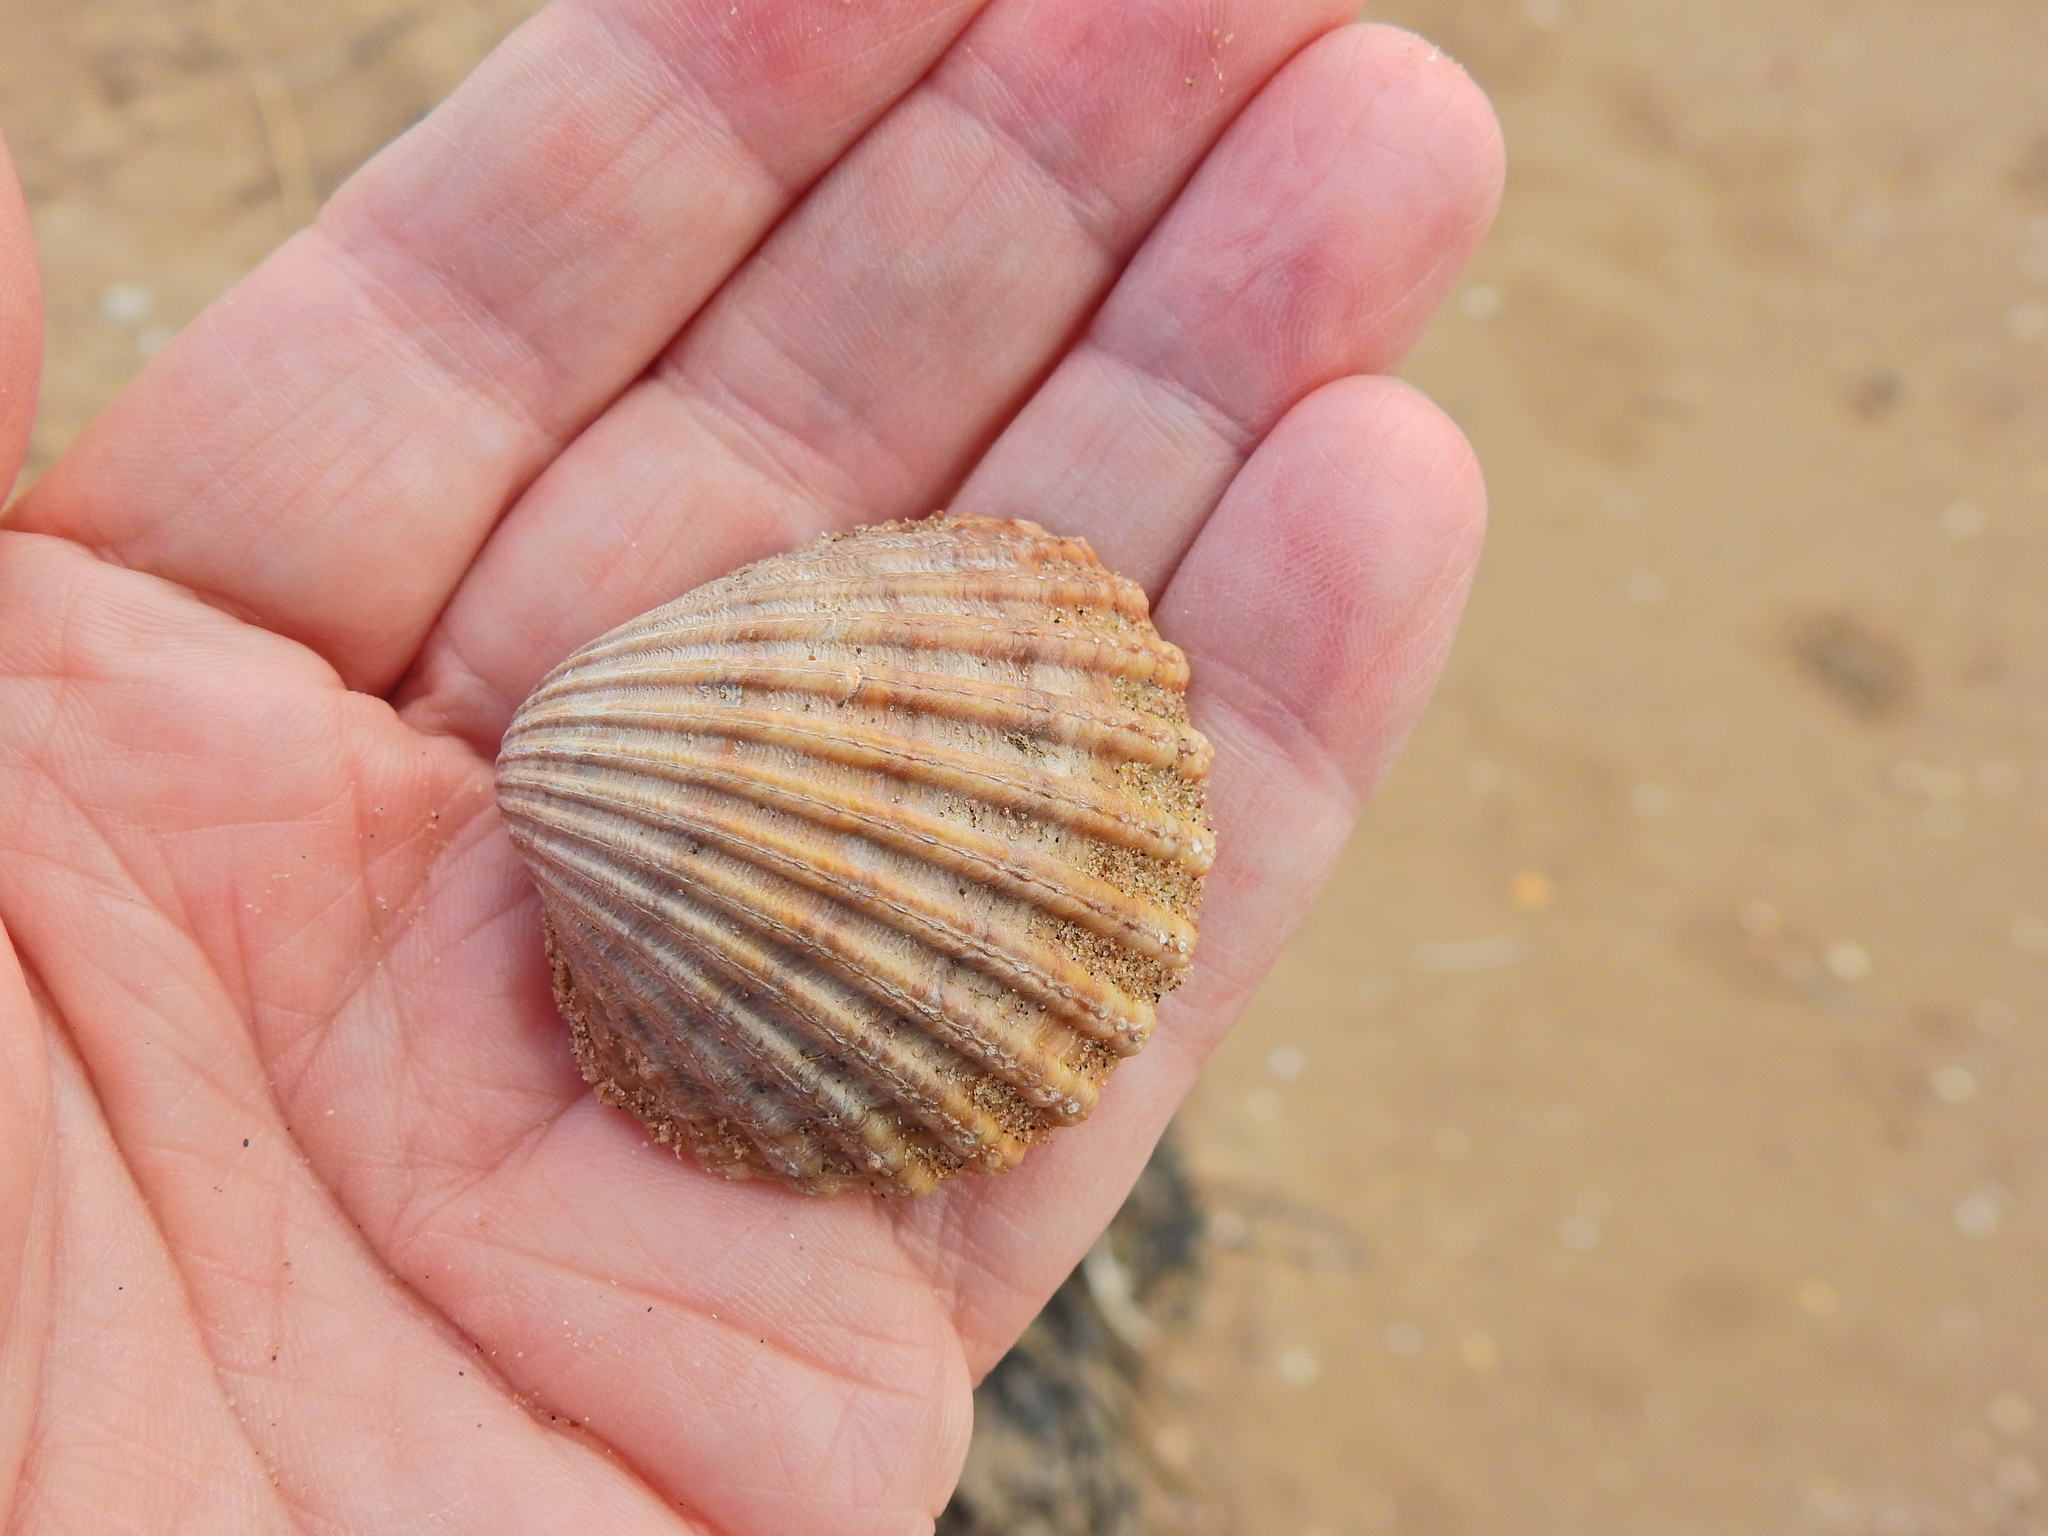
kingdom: Animalia
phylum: Mollusca
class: Bivalvia
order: Cardiida
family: Cardiidae
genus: Acanthocardia
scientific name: Acanthocardia echinata
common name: Prickly cockle
